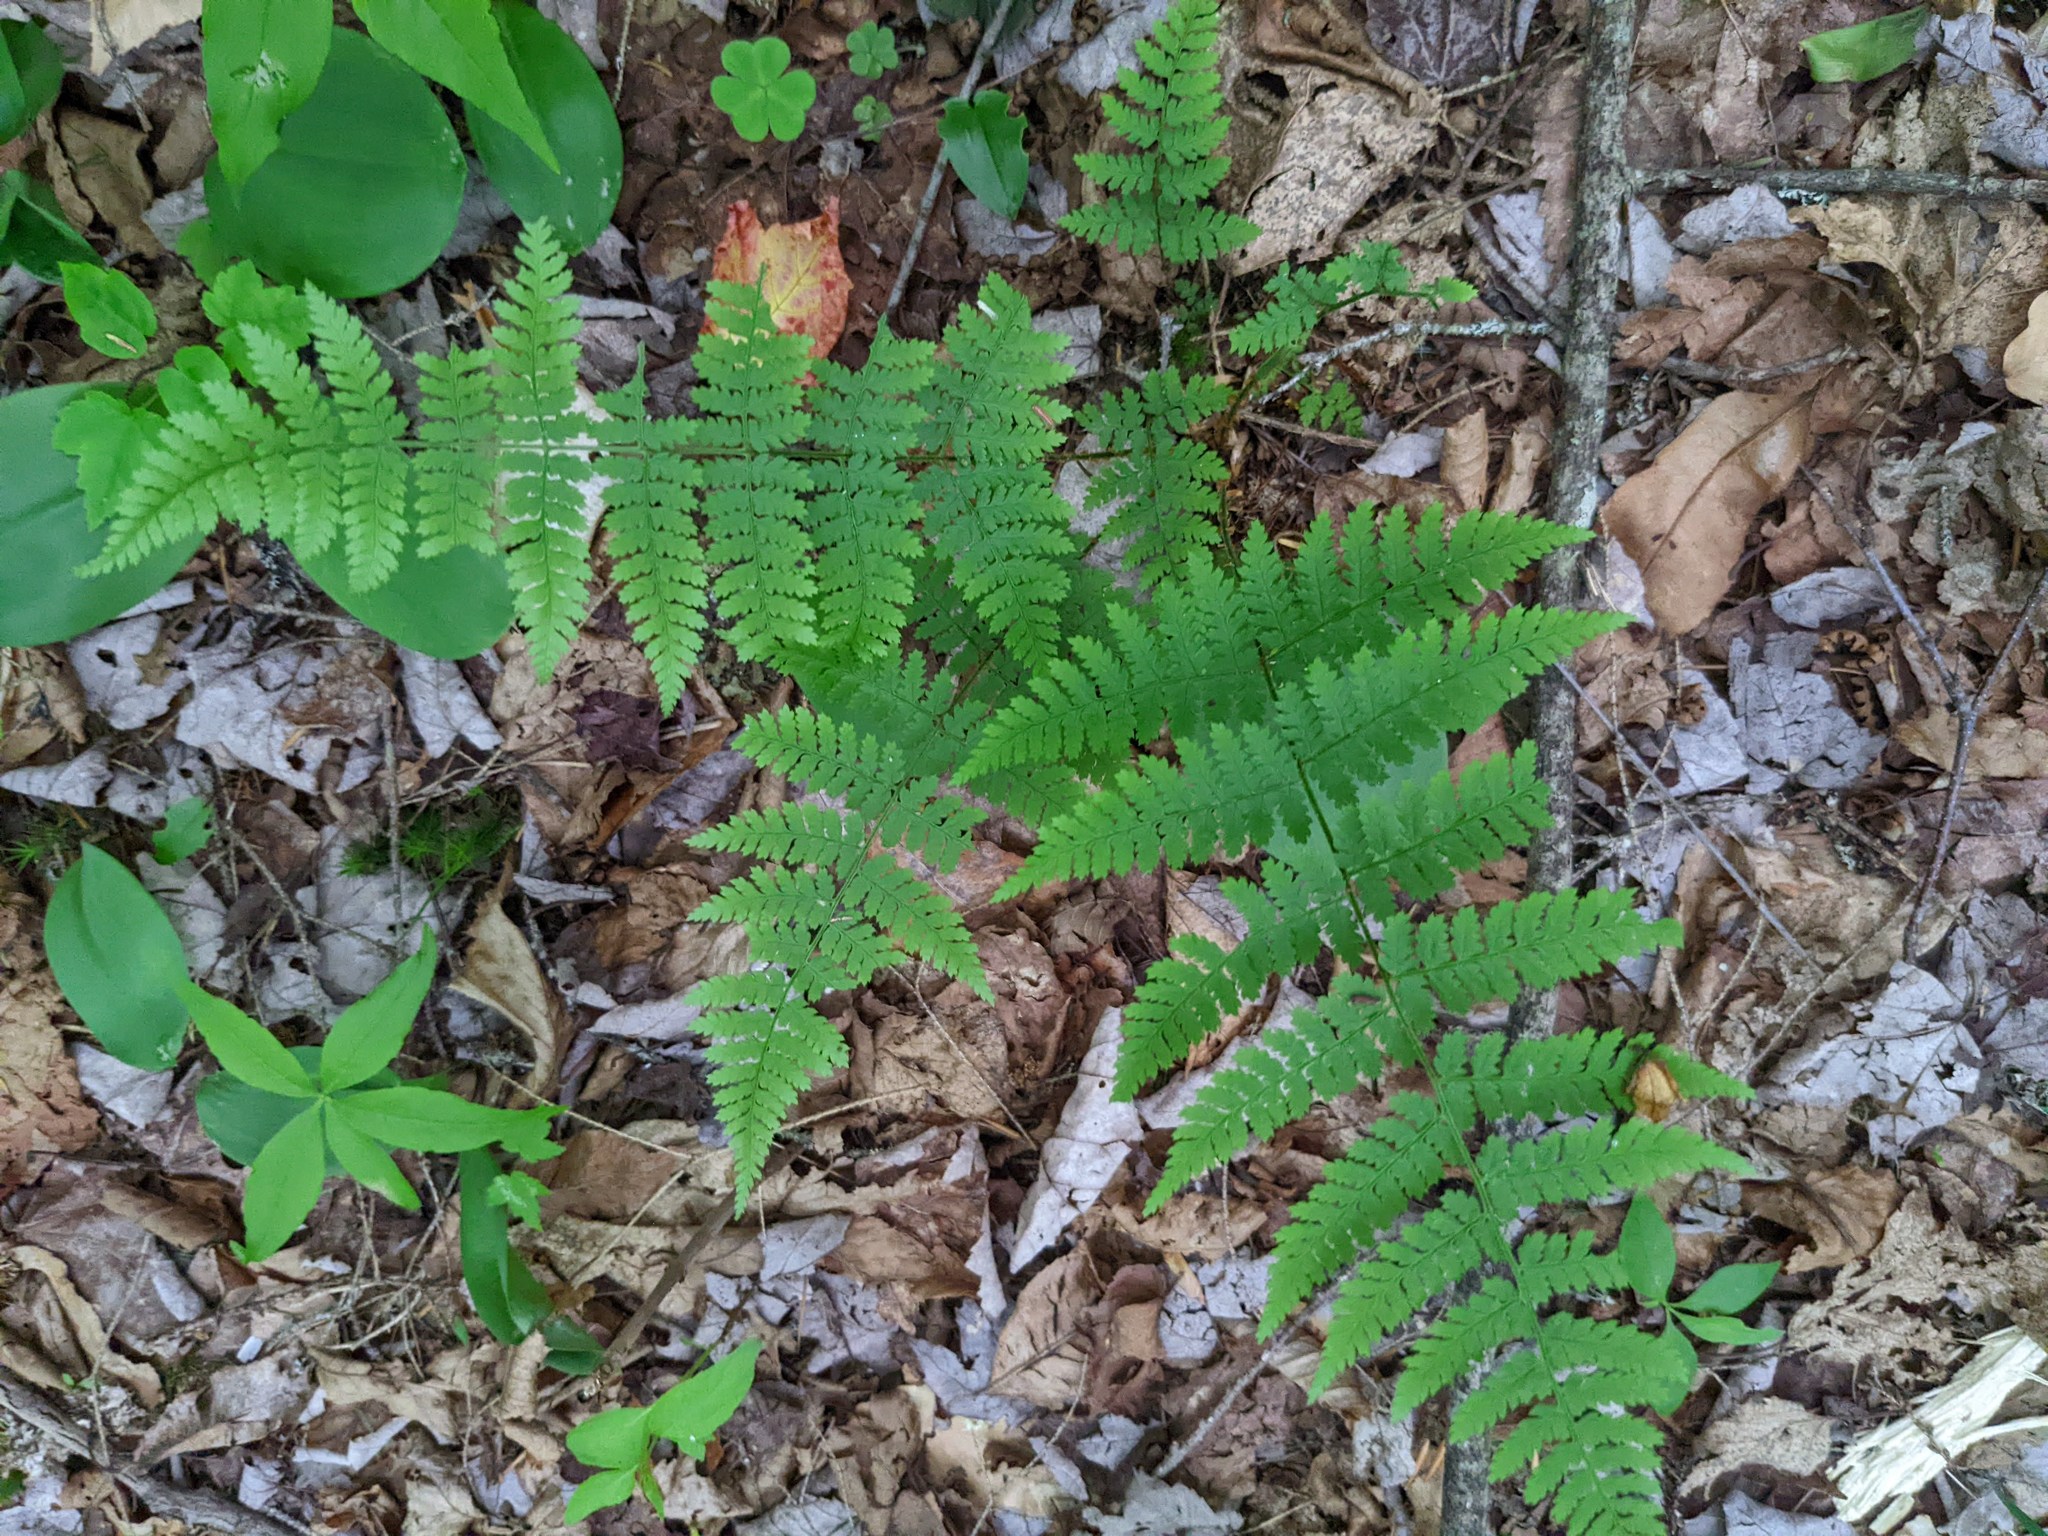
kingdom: Plantae
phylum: Tracheophyta
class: Polypodiopsida
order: Polypodiales
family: Dryopteridaceae
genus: Dryopteris
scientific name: Dryopteris intermedia
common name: Evergreen wood fern
